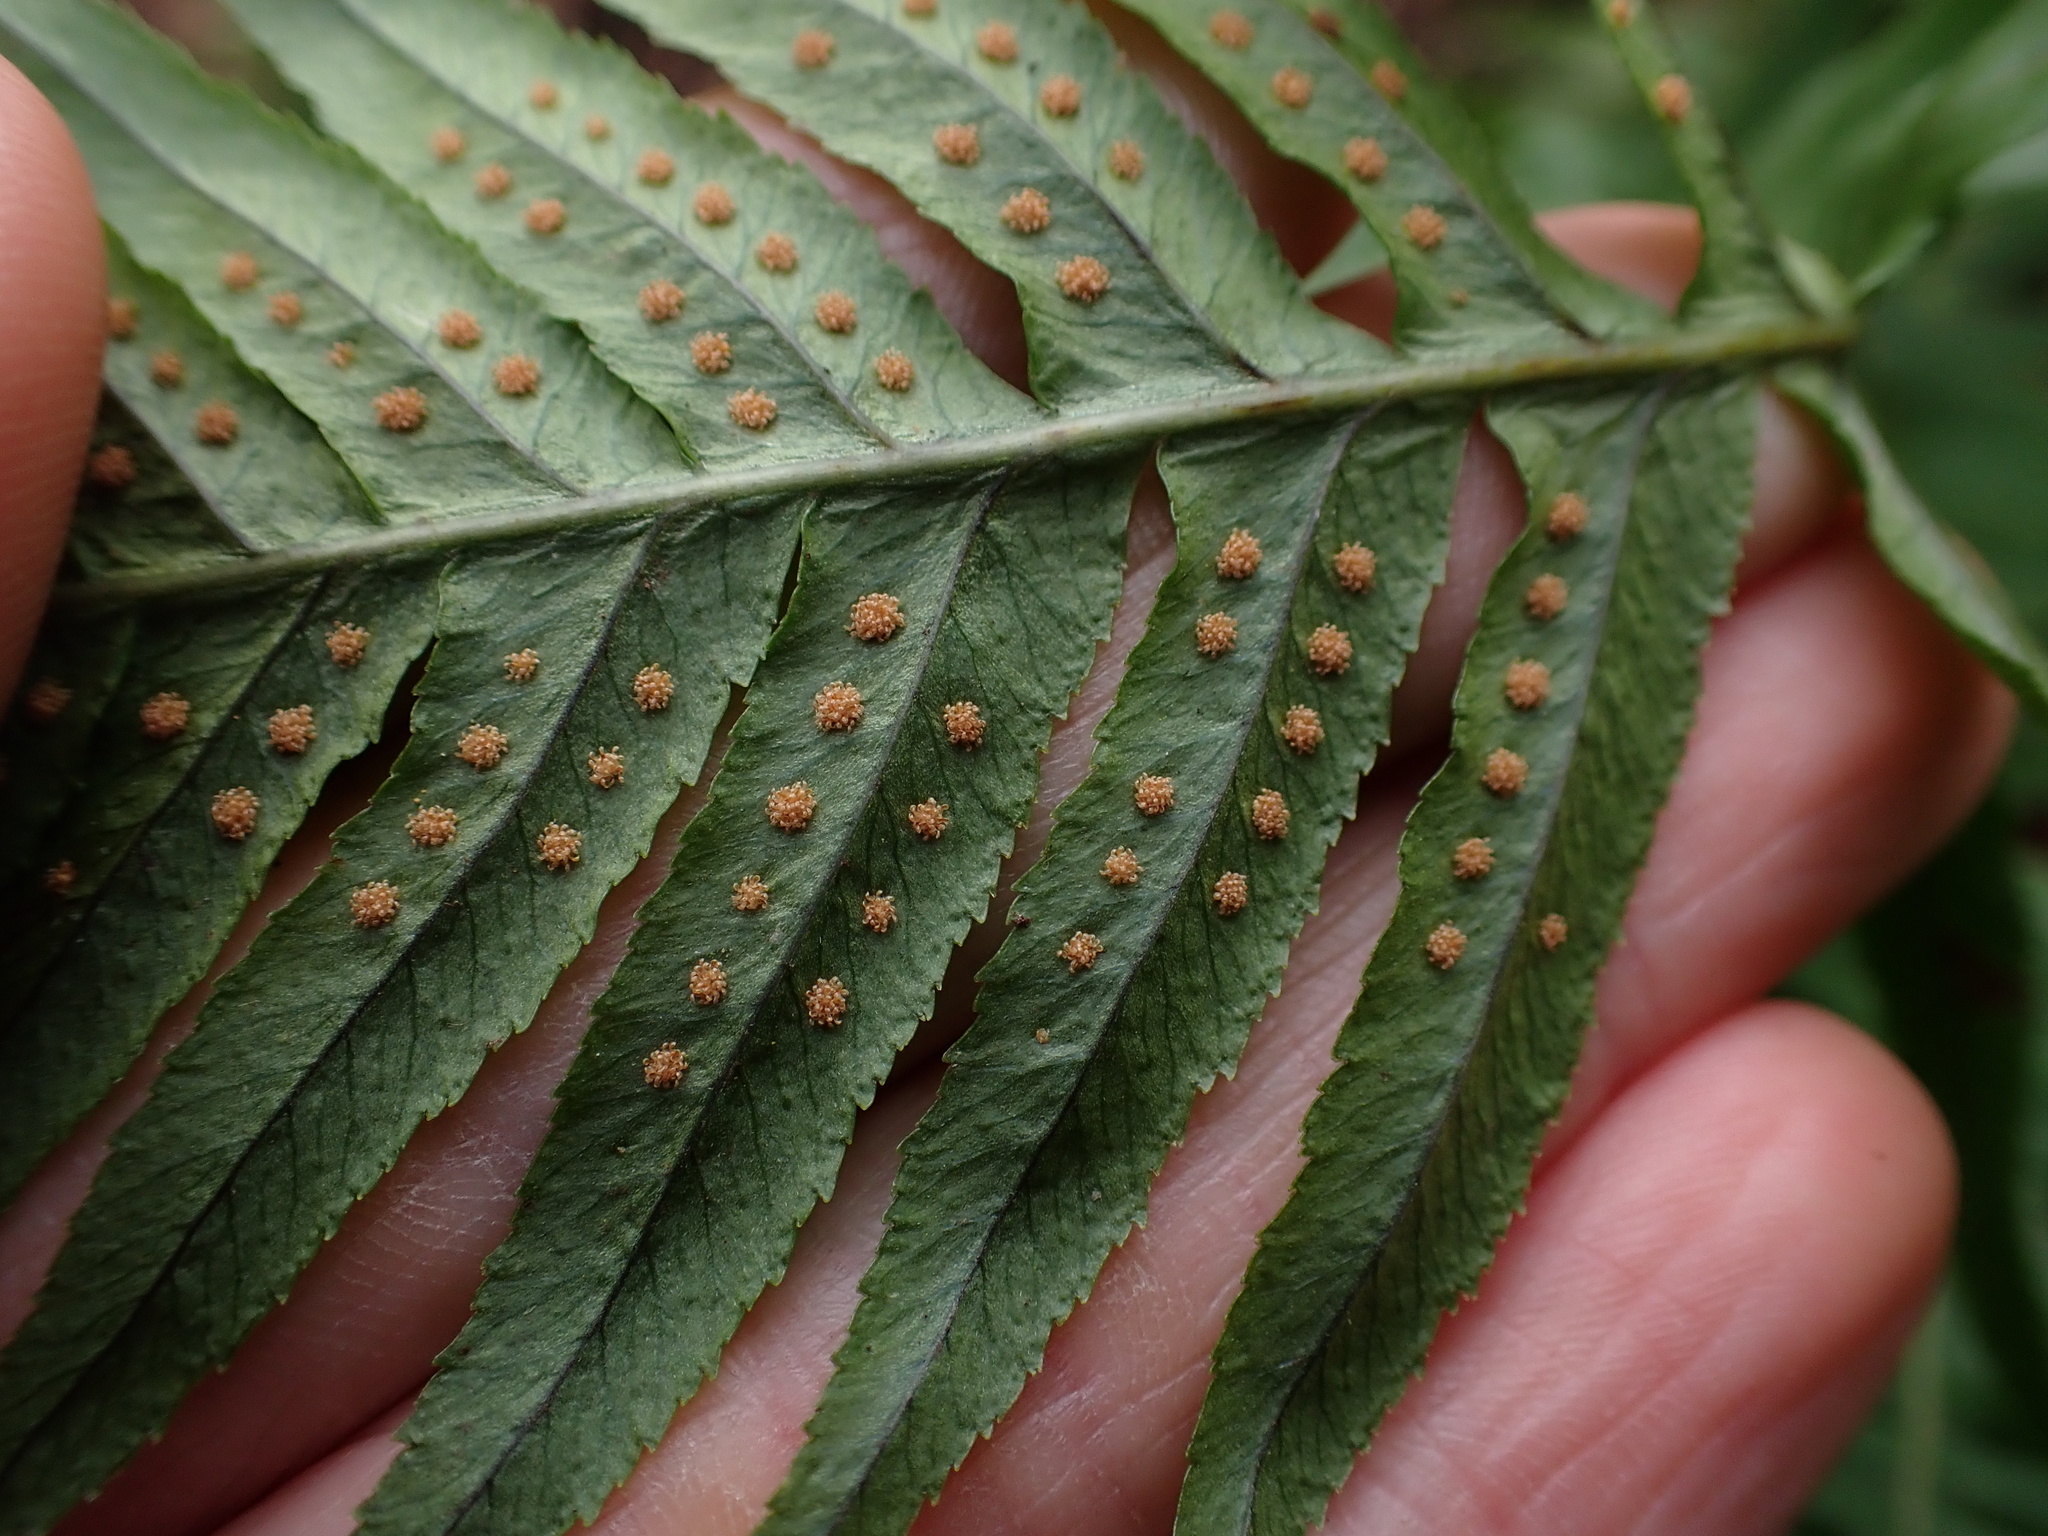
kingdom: Plantae
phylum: Tracheophyta
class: Polypodiopsida
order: Polypodiales
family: Polypodiaceae
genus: Polypodium
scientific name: Polypodium glycyrrhiza
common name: Licorice fern
